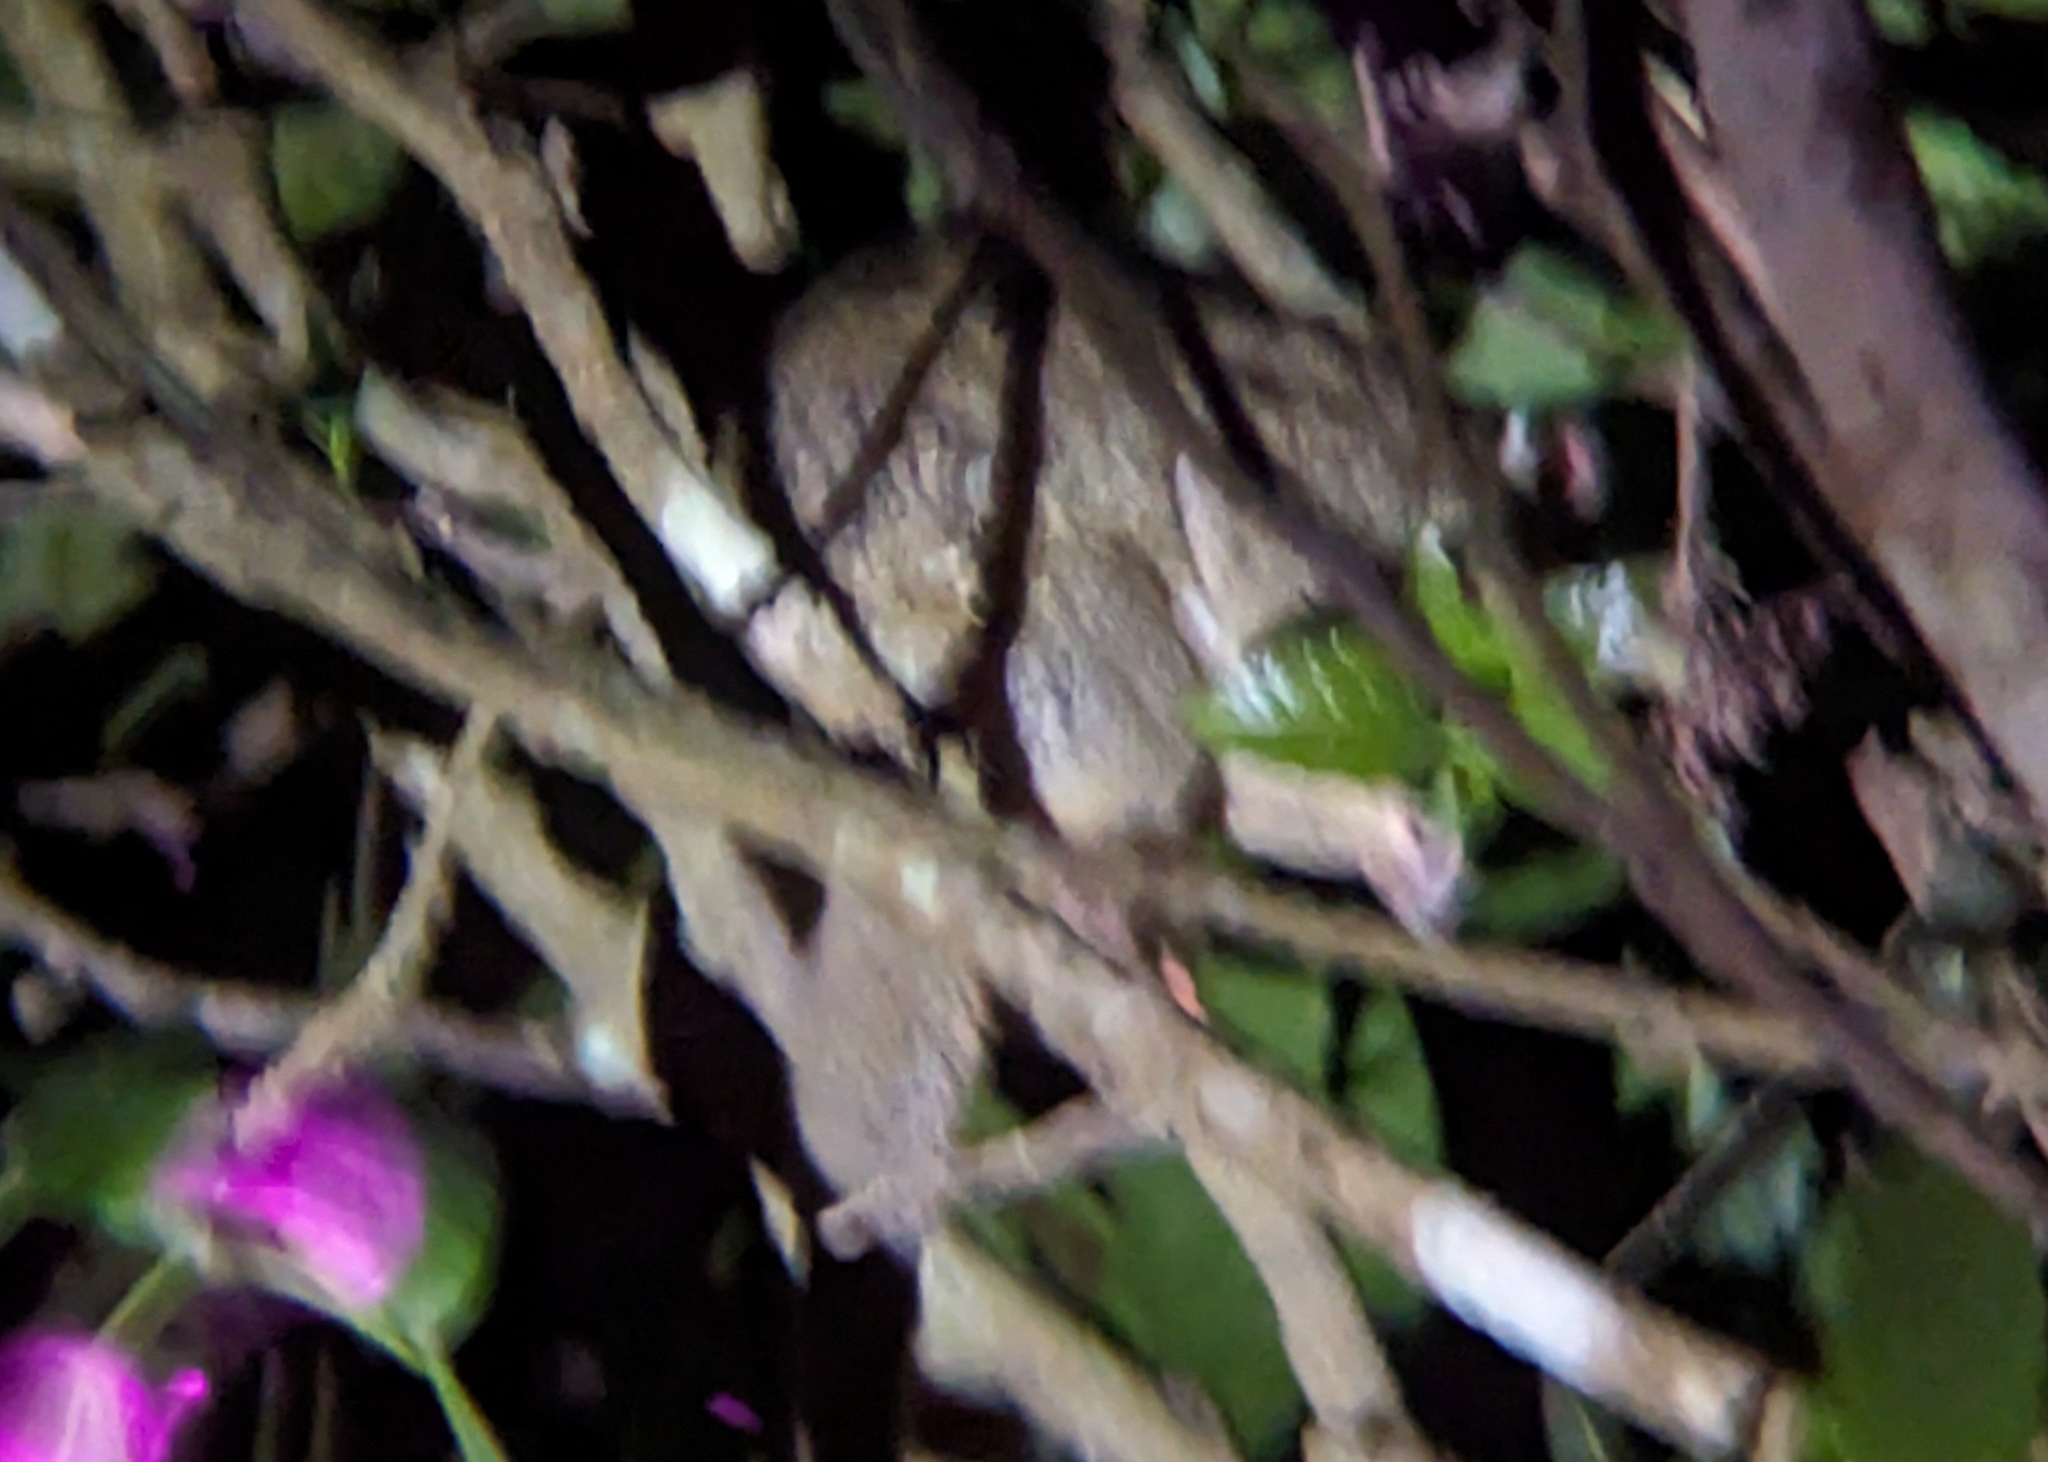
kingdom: Animalia
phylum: Chordata
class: Mammalia
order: Diprotodontia
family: Pseudocheiridae
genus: Pseudochirops
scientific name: Pseudochirops archeri
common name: Green ringtail
